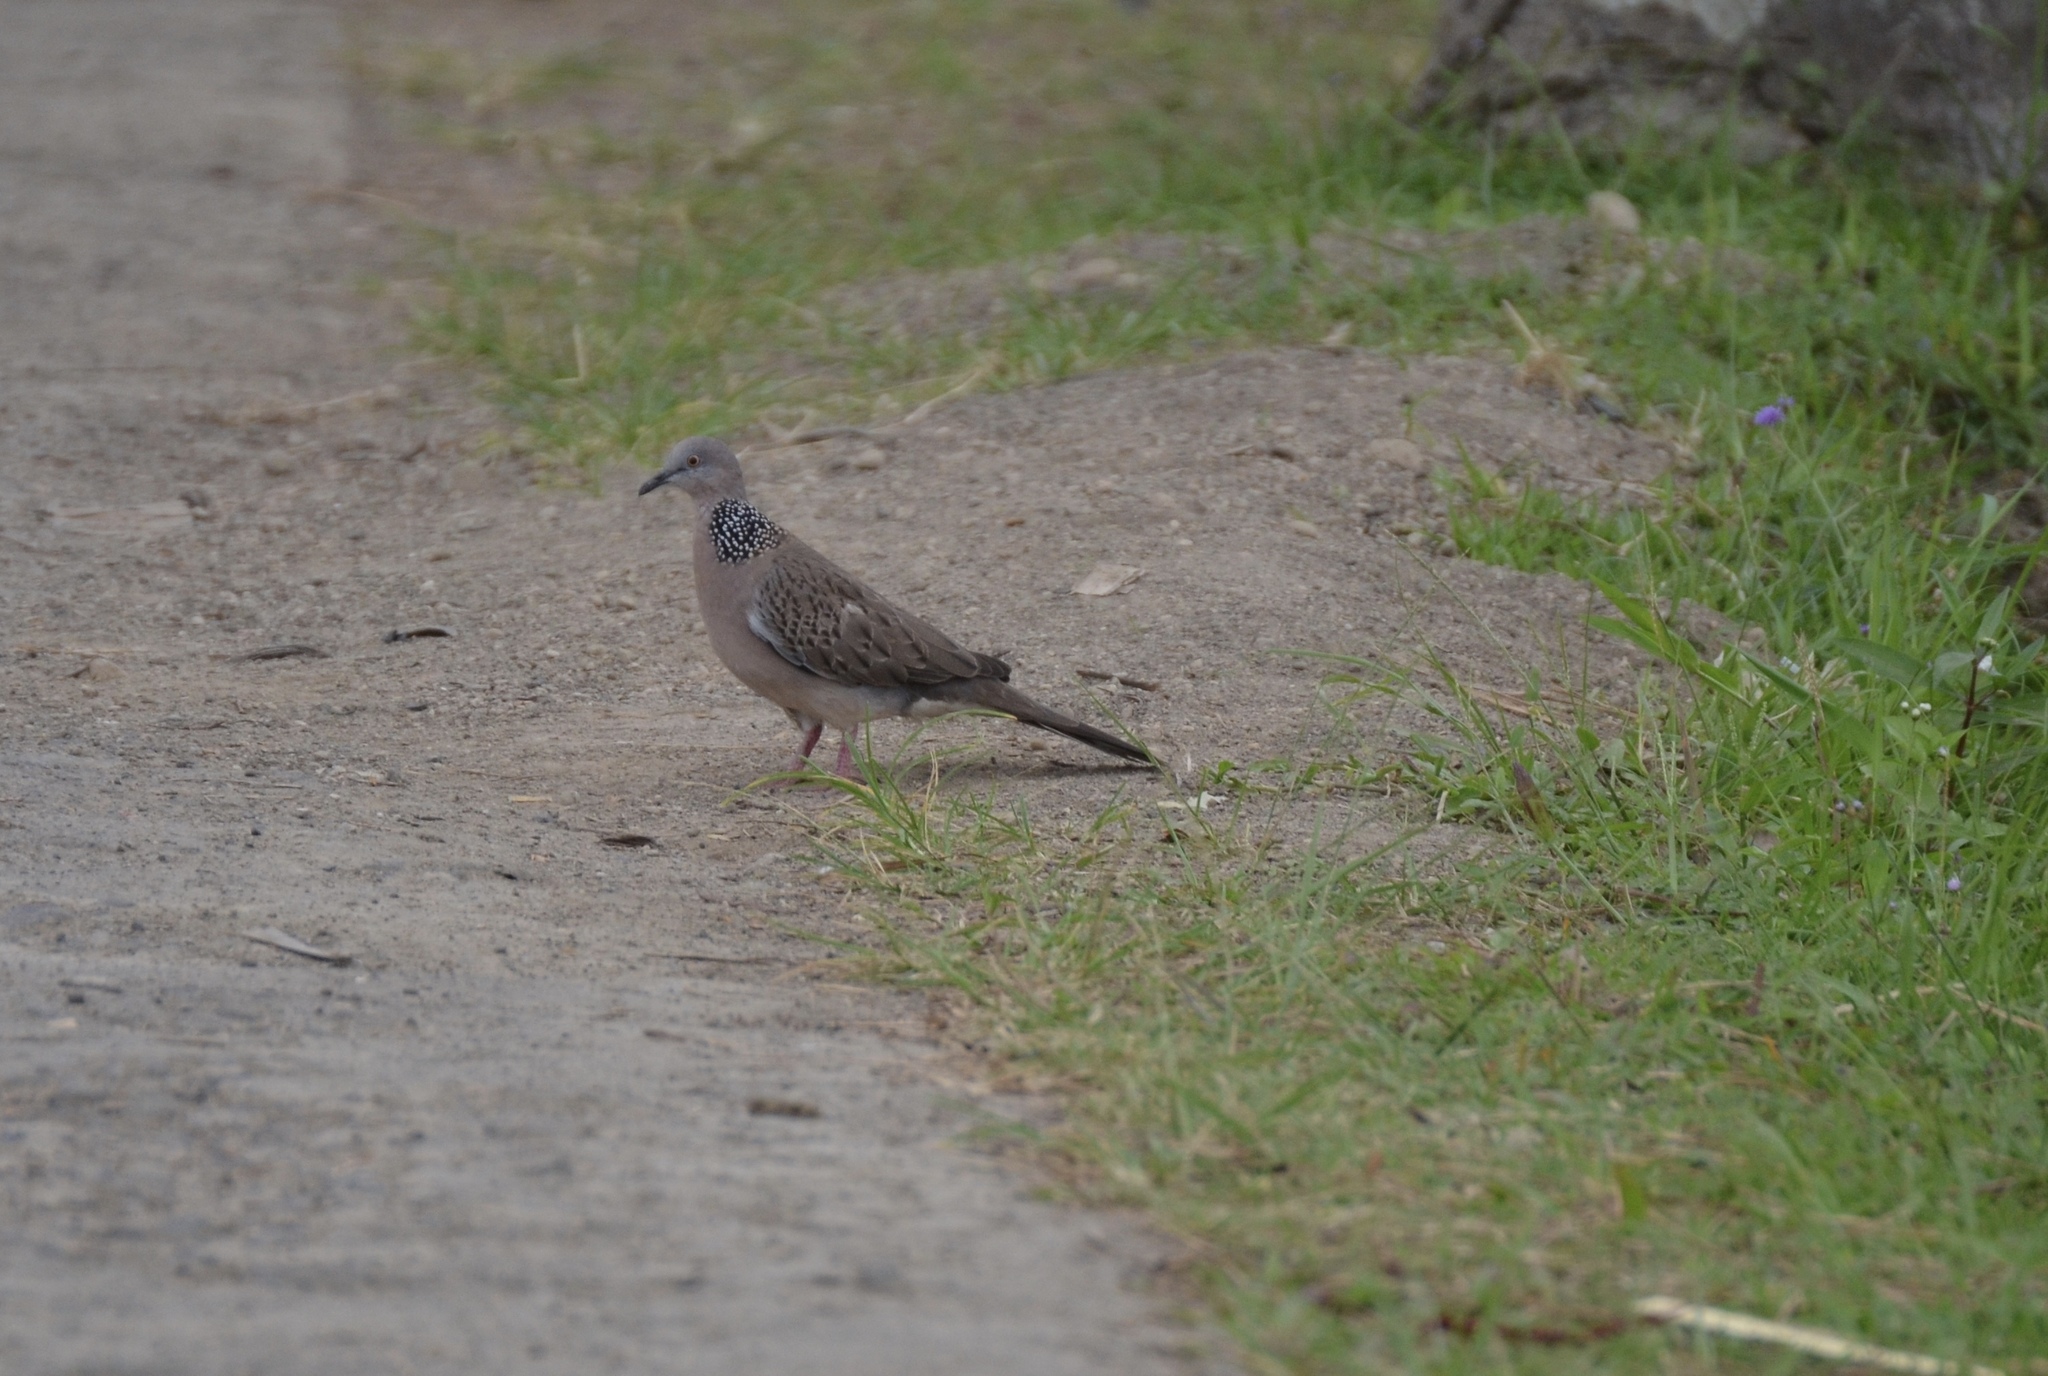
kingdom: Animalia
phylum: Chordata
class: Aves
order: Columbiformes
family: Columbidae
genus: Spilopelia
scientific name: Spilopelia chinensis
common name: Spotted dove
